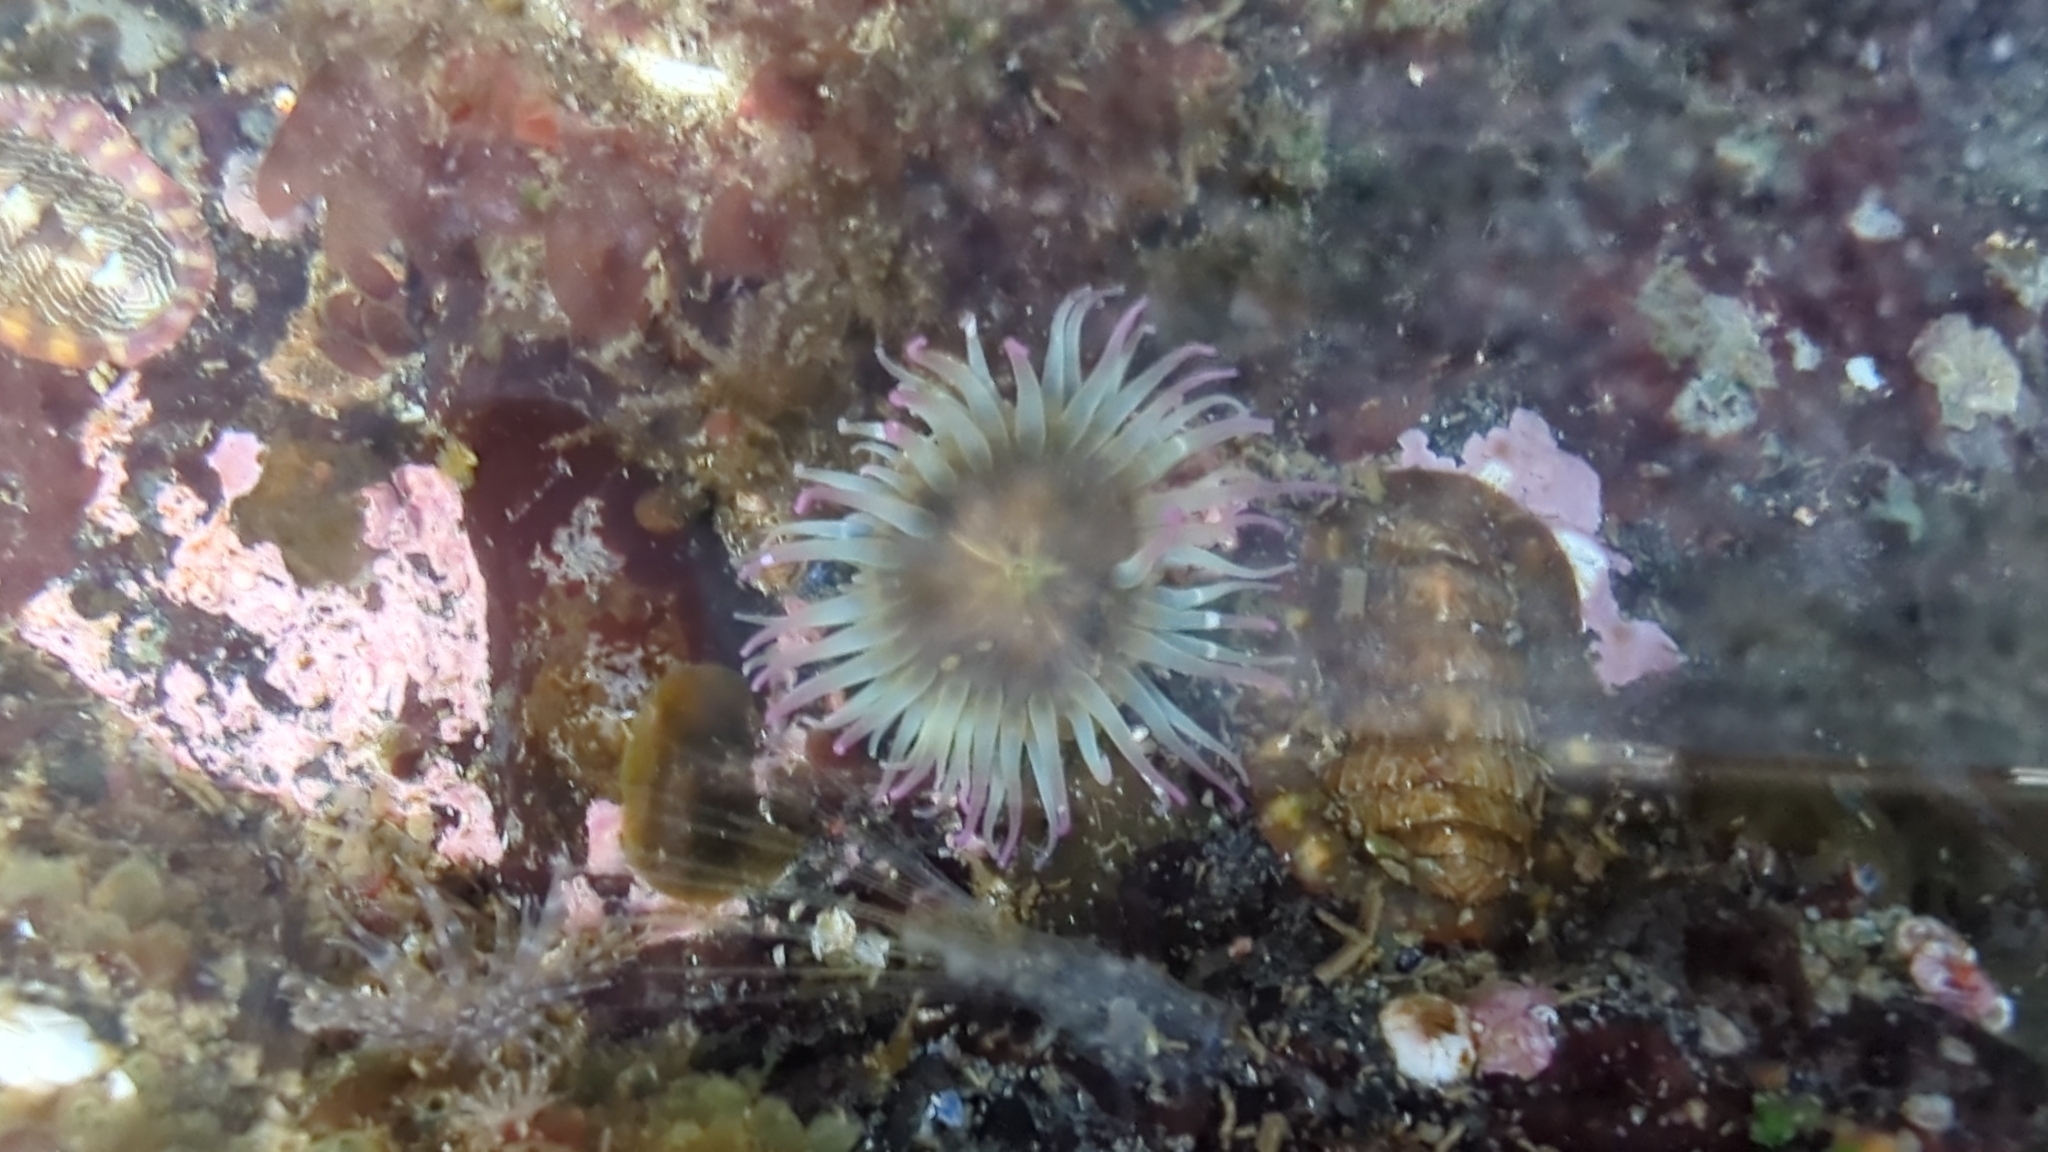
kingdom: Animalia
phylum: Cnidaria
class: Anthozoa
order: Actiniaria
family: Actiniidae
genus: Anthopleura
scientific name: Anthopleura elegantissima
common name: Clonal anemone
